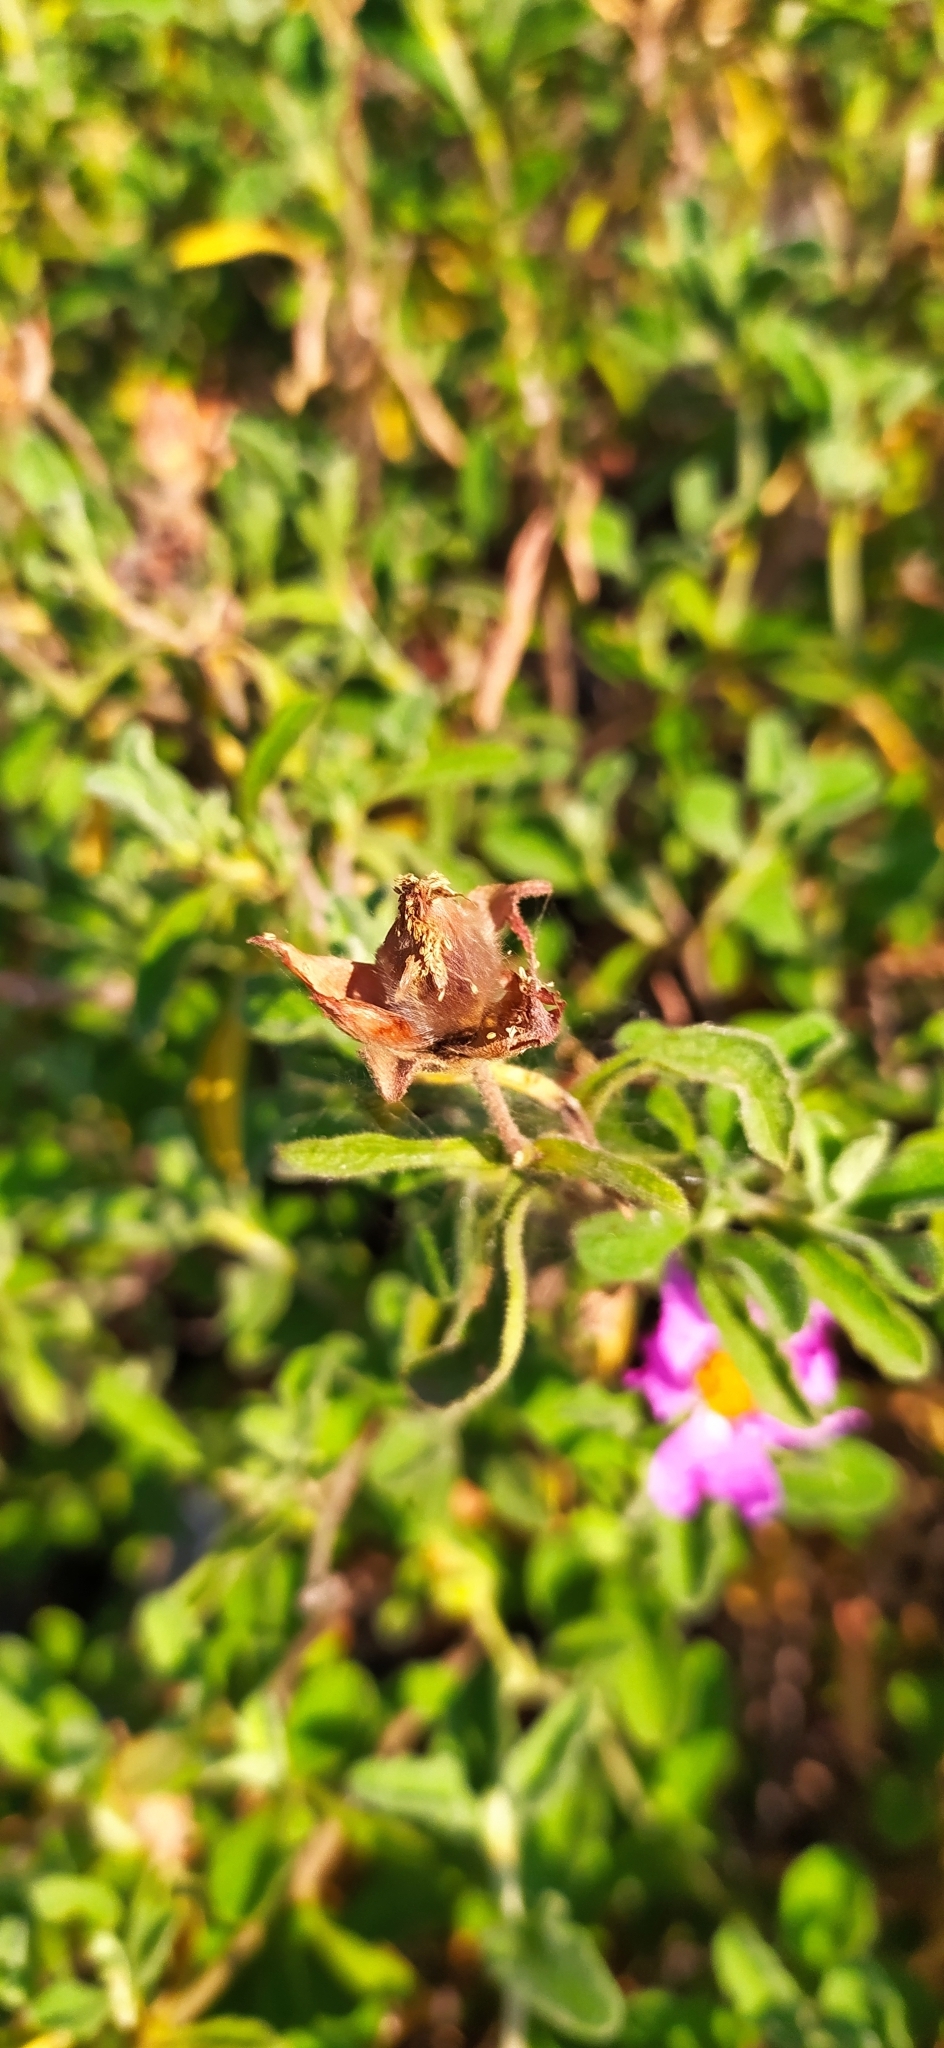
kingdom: Plantae
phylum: Tracheophyta
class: Magnoliopsida
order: Malvales
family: Cistaceae
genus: Cistus
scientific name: Cistus tauricus
